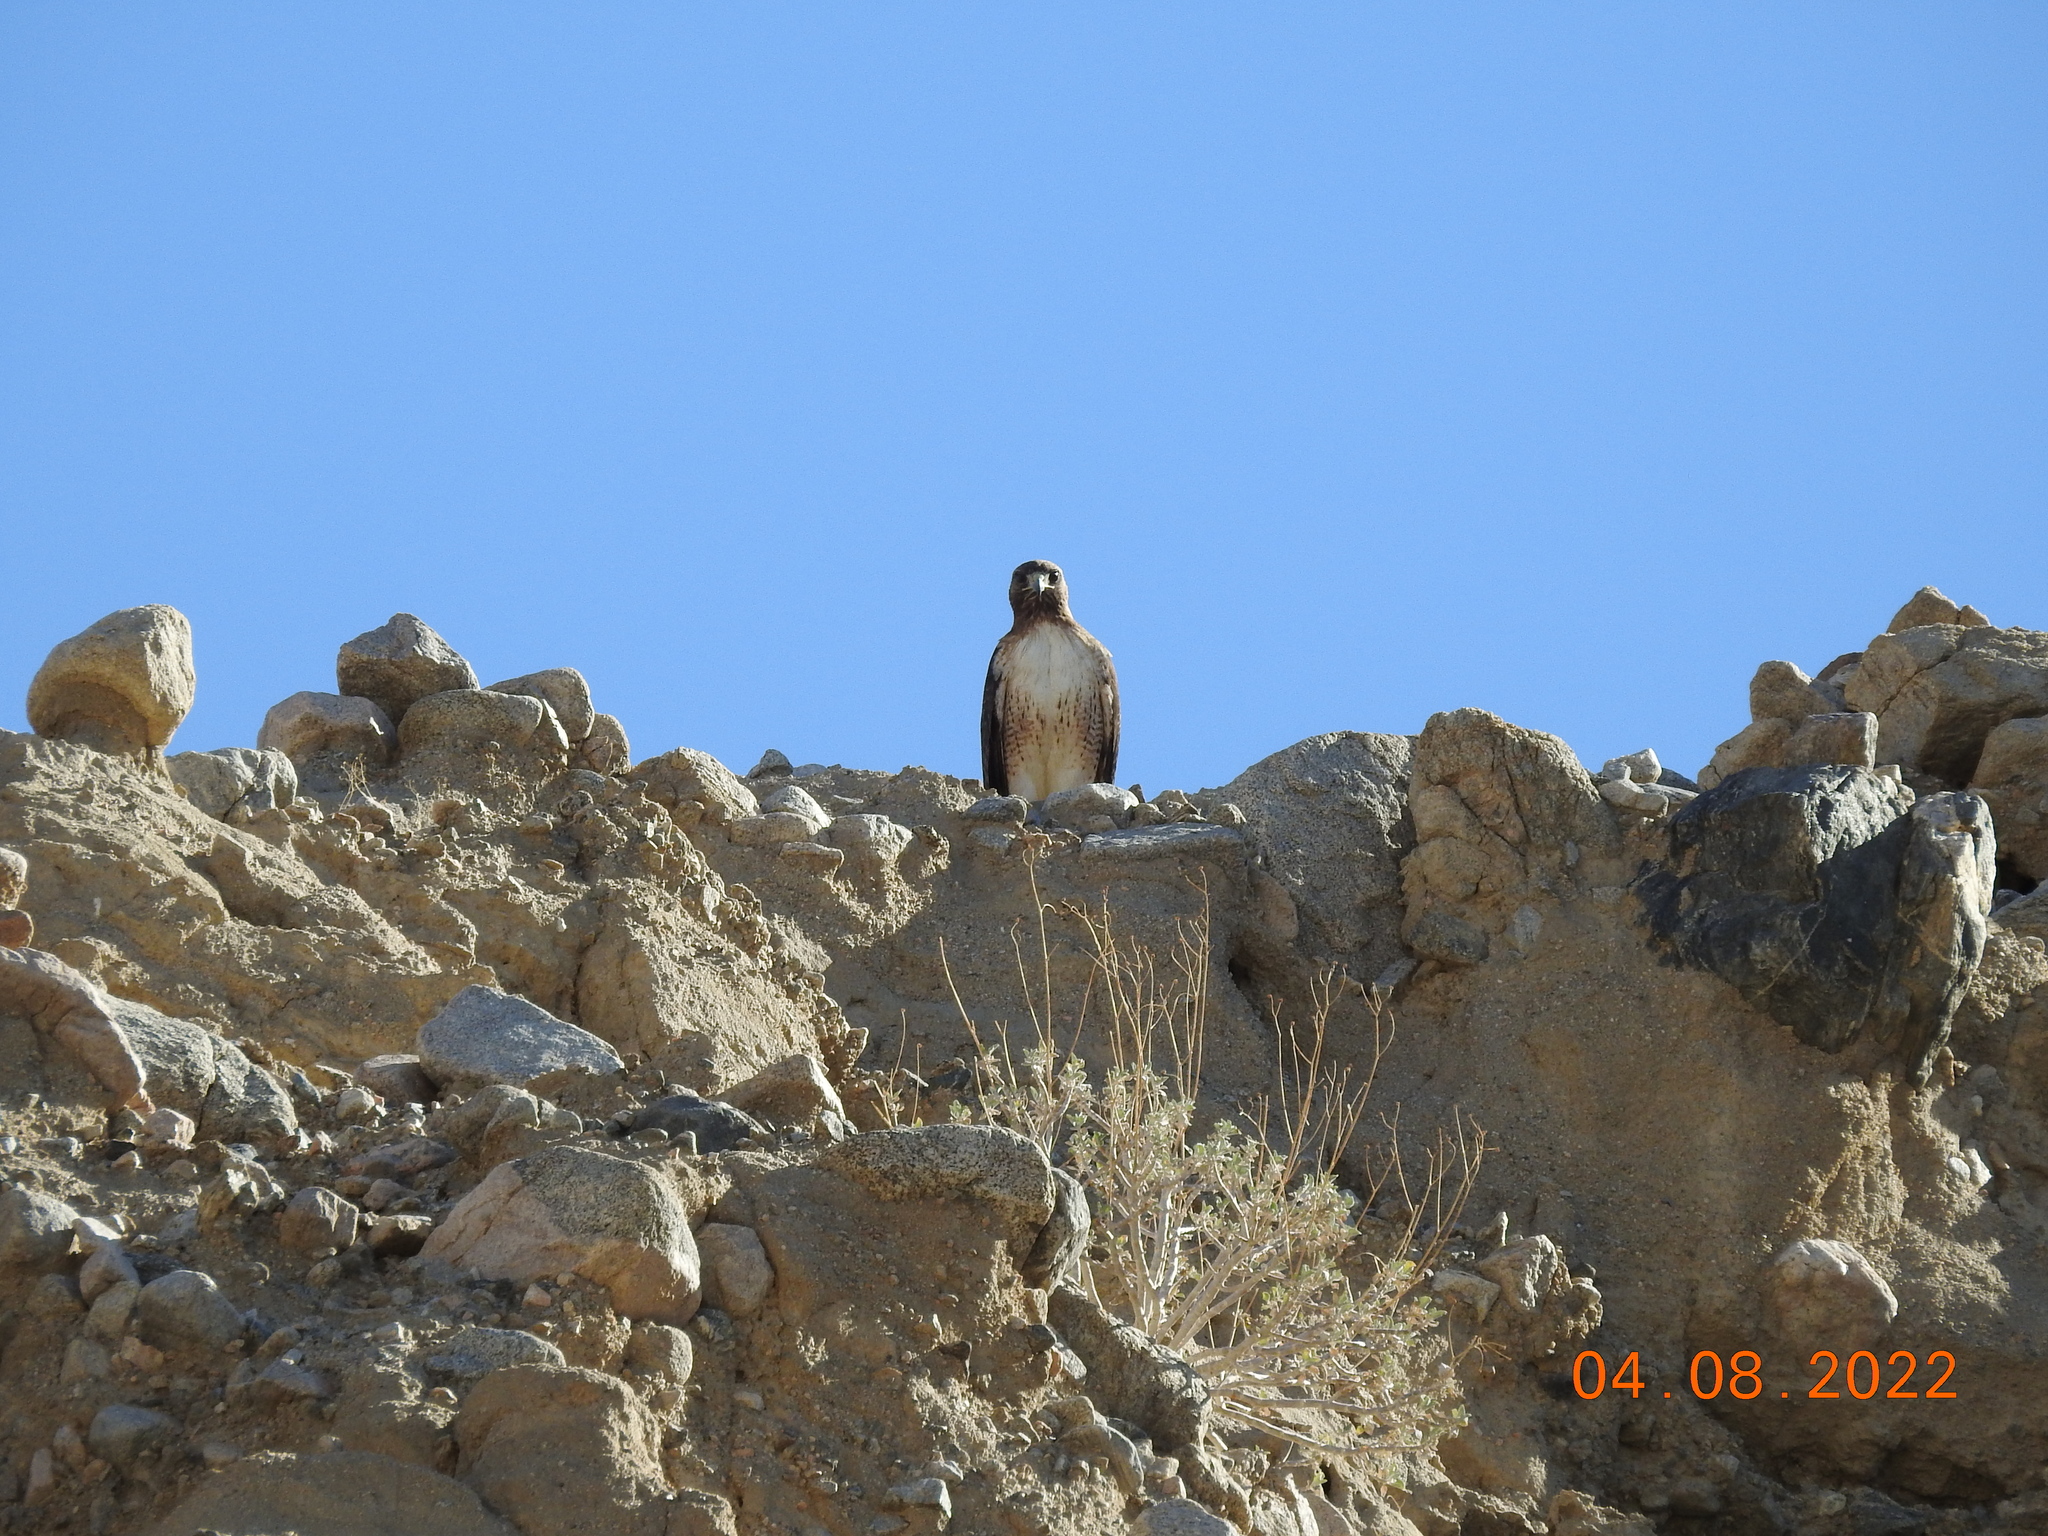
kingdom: Animalia
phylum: Chordata
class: Aves
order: Accipitriformes
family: Accipitridae
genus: Buteo
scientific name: Buteo jamaicensis
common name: Red-tailed hawk
